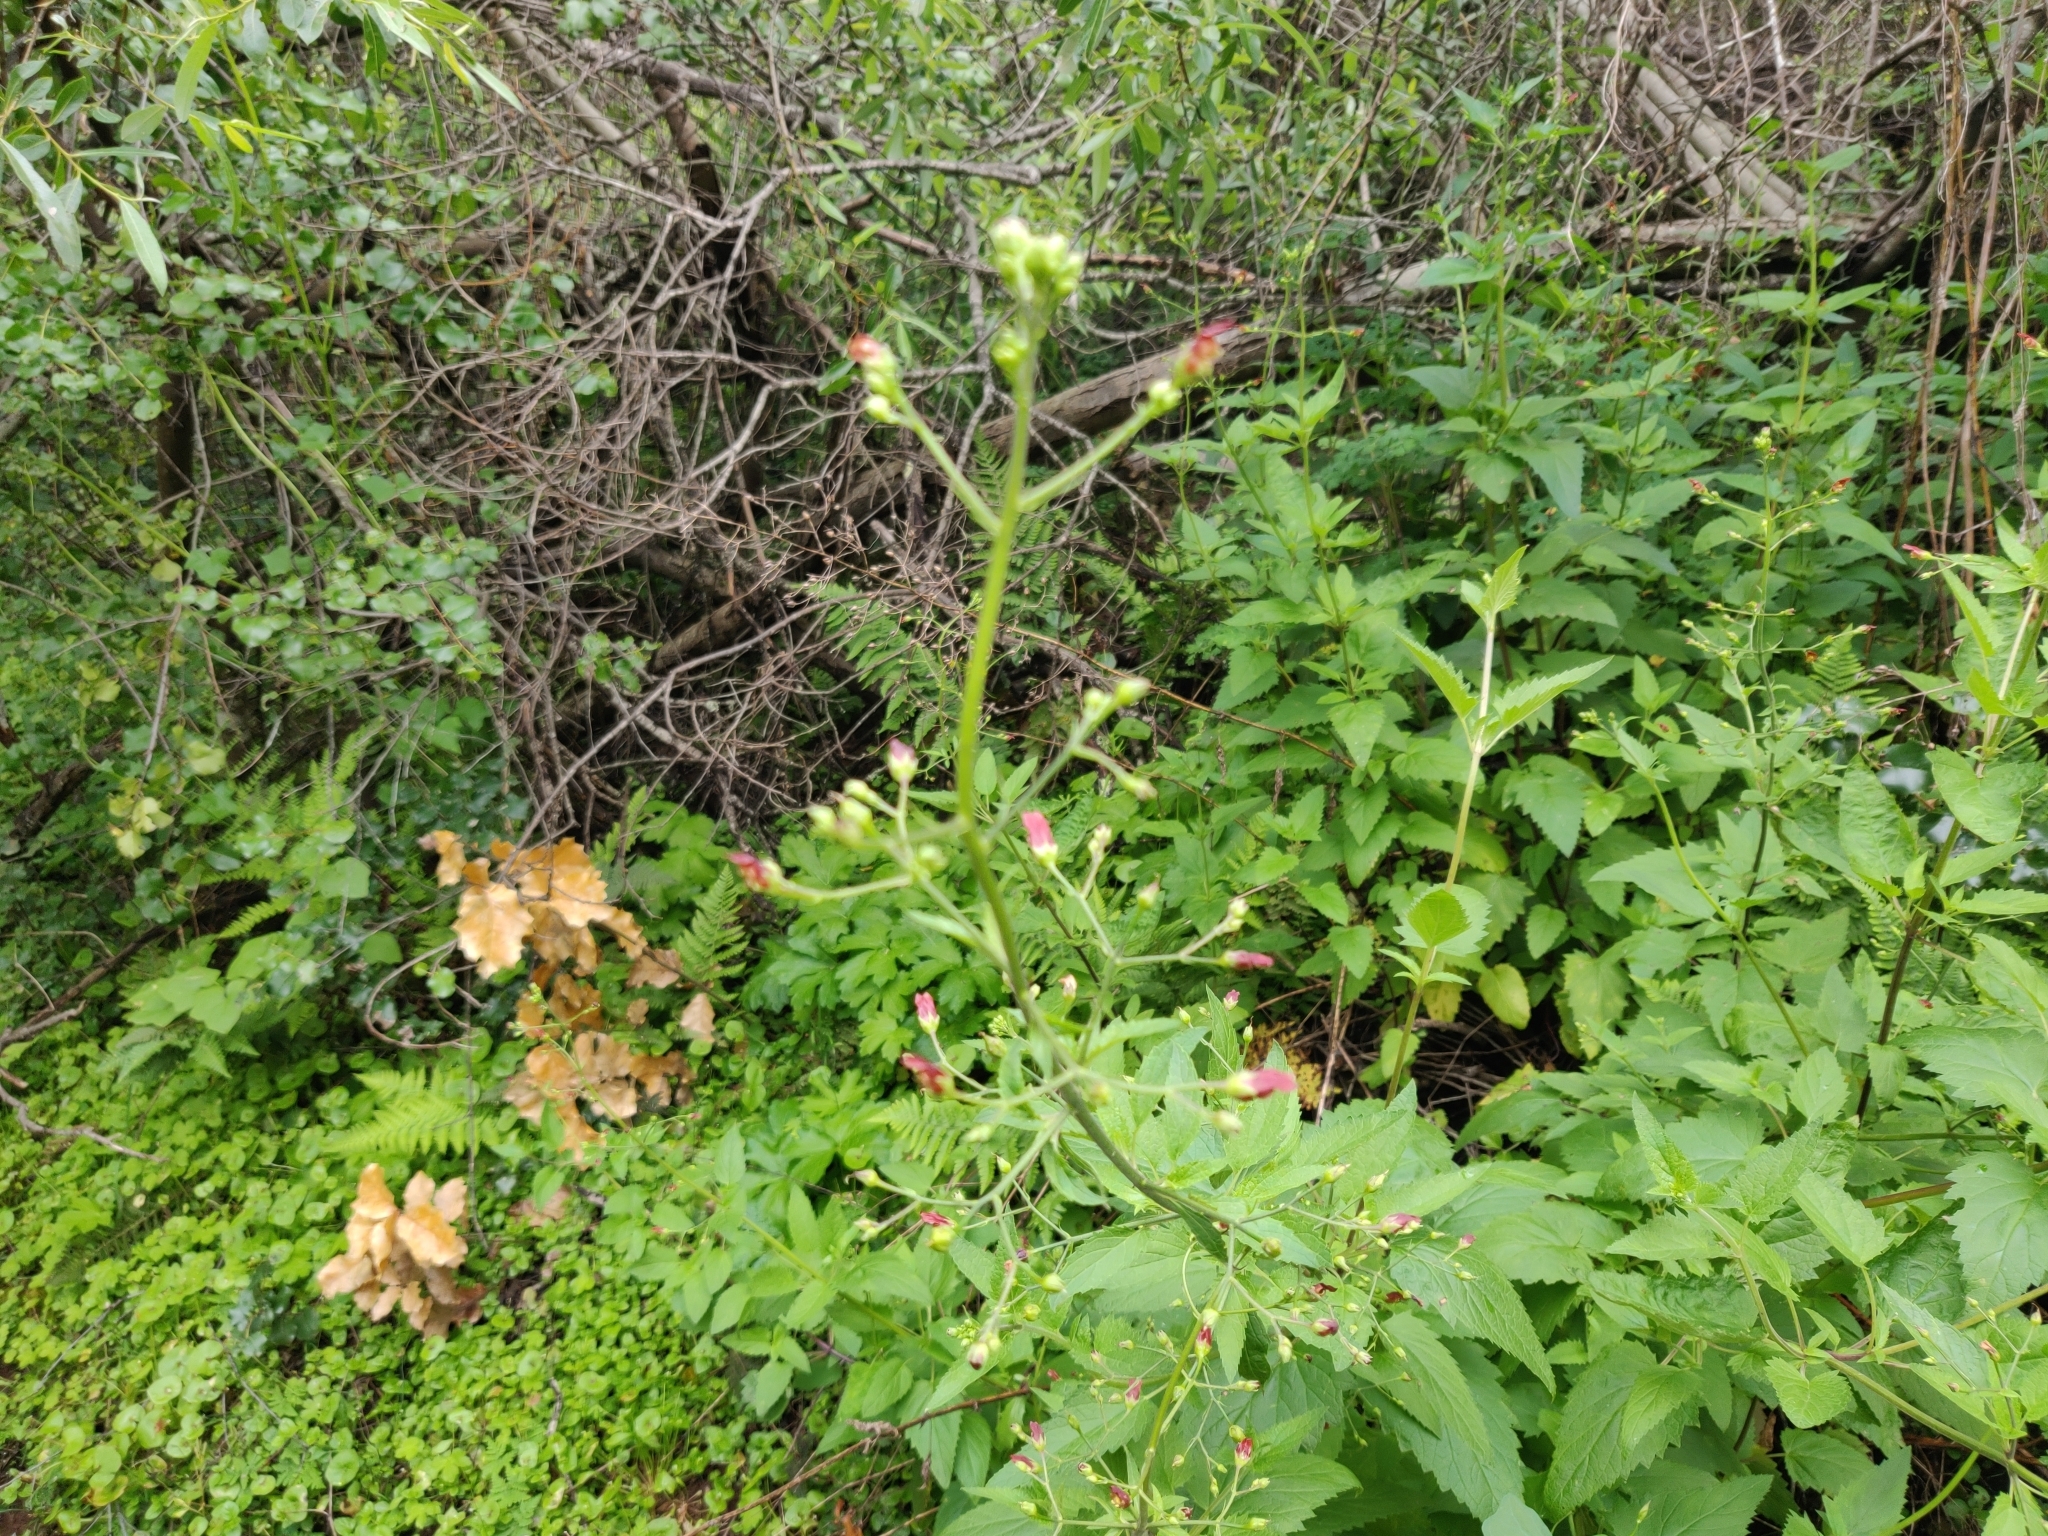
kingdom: Plantae
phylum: Tracheophyta
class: Magnoliopsida
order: Lamiales
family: Scrophulariaceae
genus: Scrophularia
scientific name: Scrophularia californica
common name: California figwort
